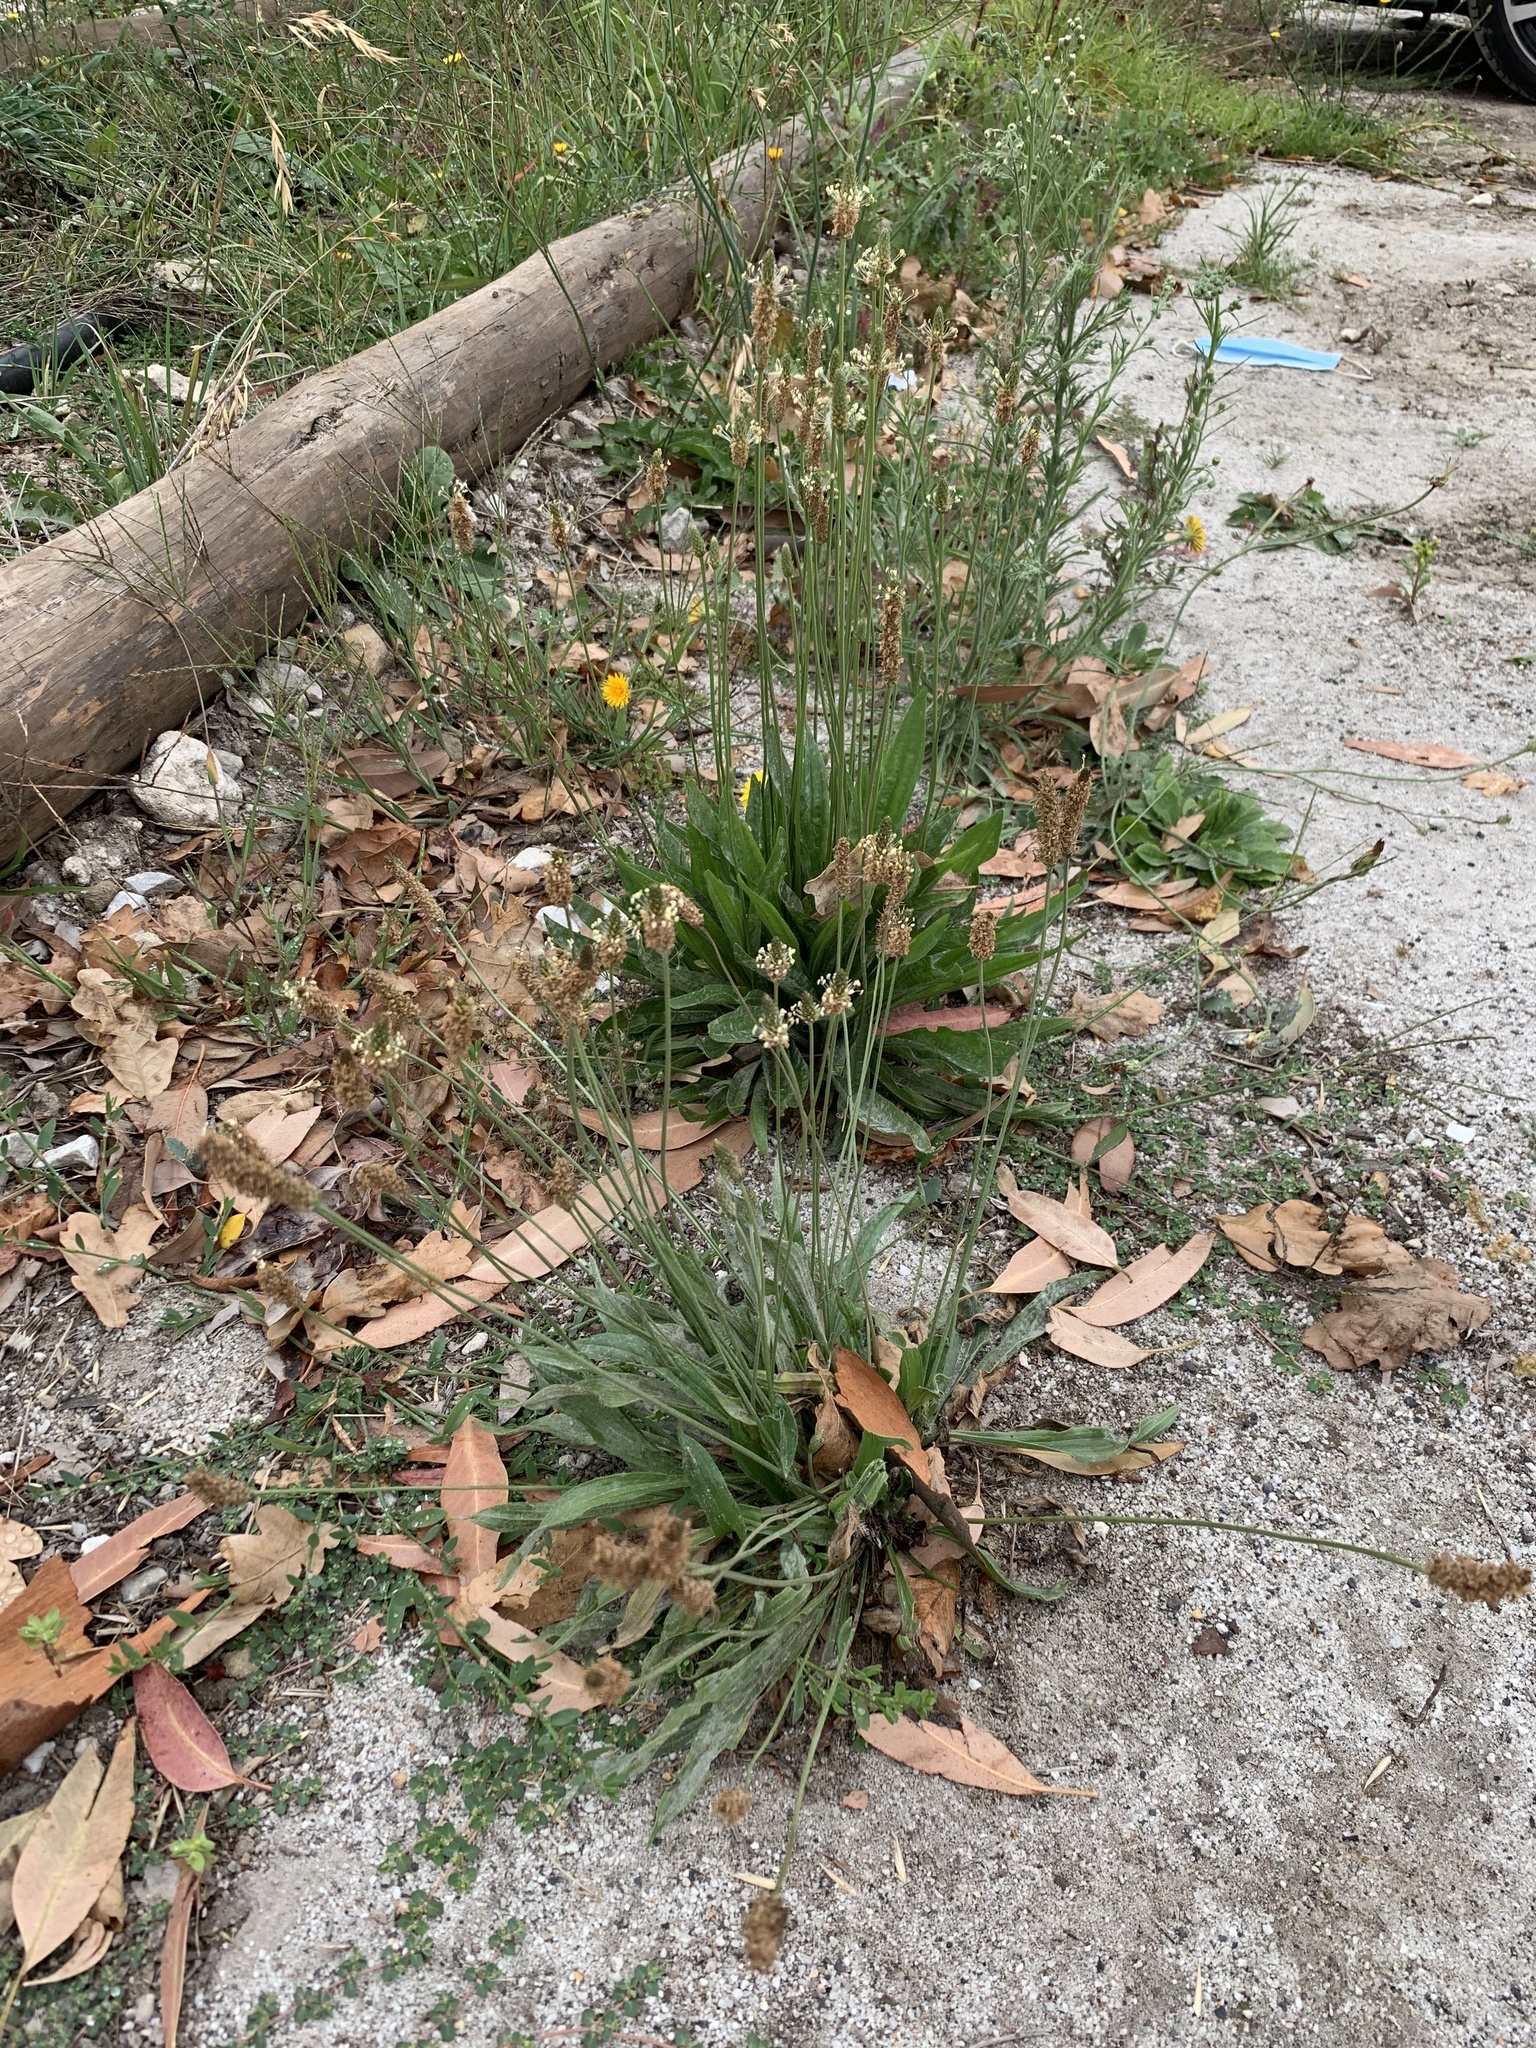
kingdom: Plantae
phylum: Tracheophyta
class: Magnoliopsida
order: Lamiales
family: Plantaginaceae
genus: Plantago
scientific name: Plantago lanceolata
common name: Ribwort plantain
